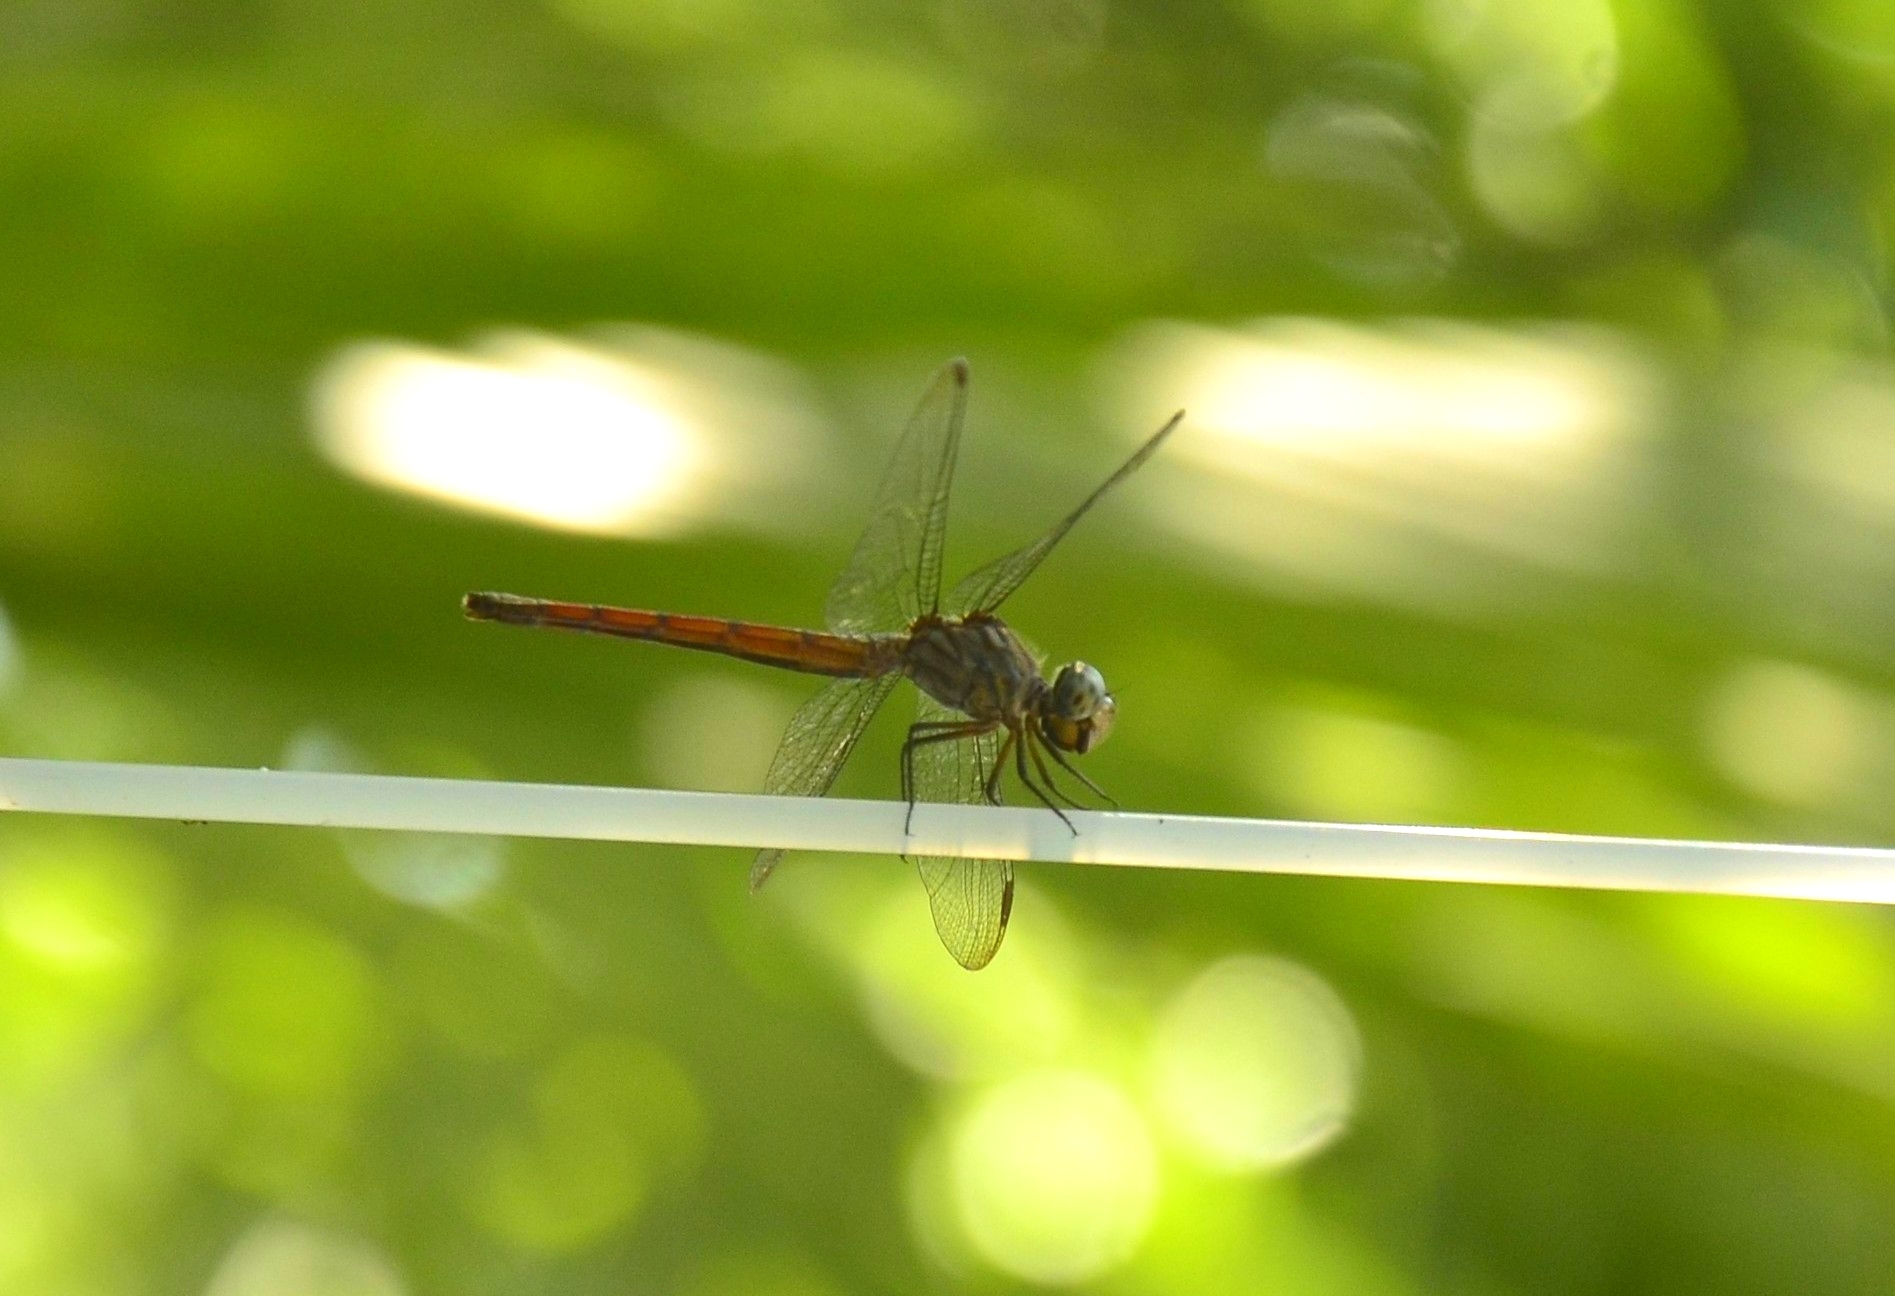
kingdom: Animalia
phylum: Arthropoda
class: Insecta
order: Odonata
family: Libellulidae
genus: Lathrecista
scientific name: Lathrecista asiatica
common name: Scarlet grenadier
